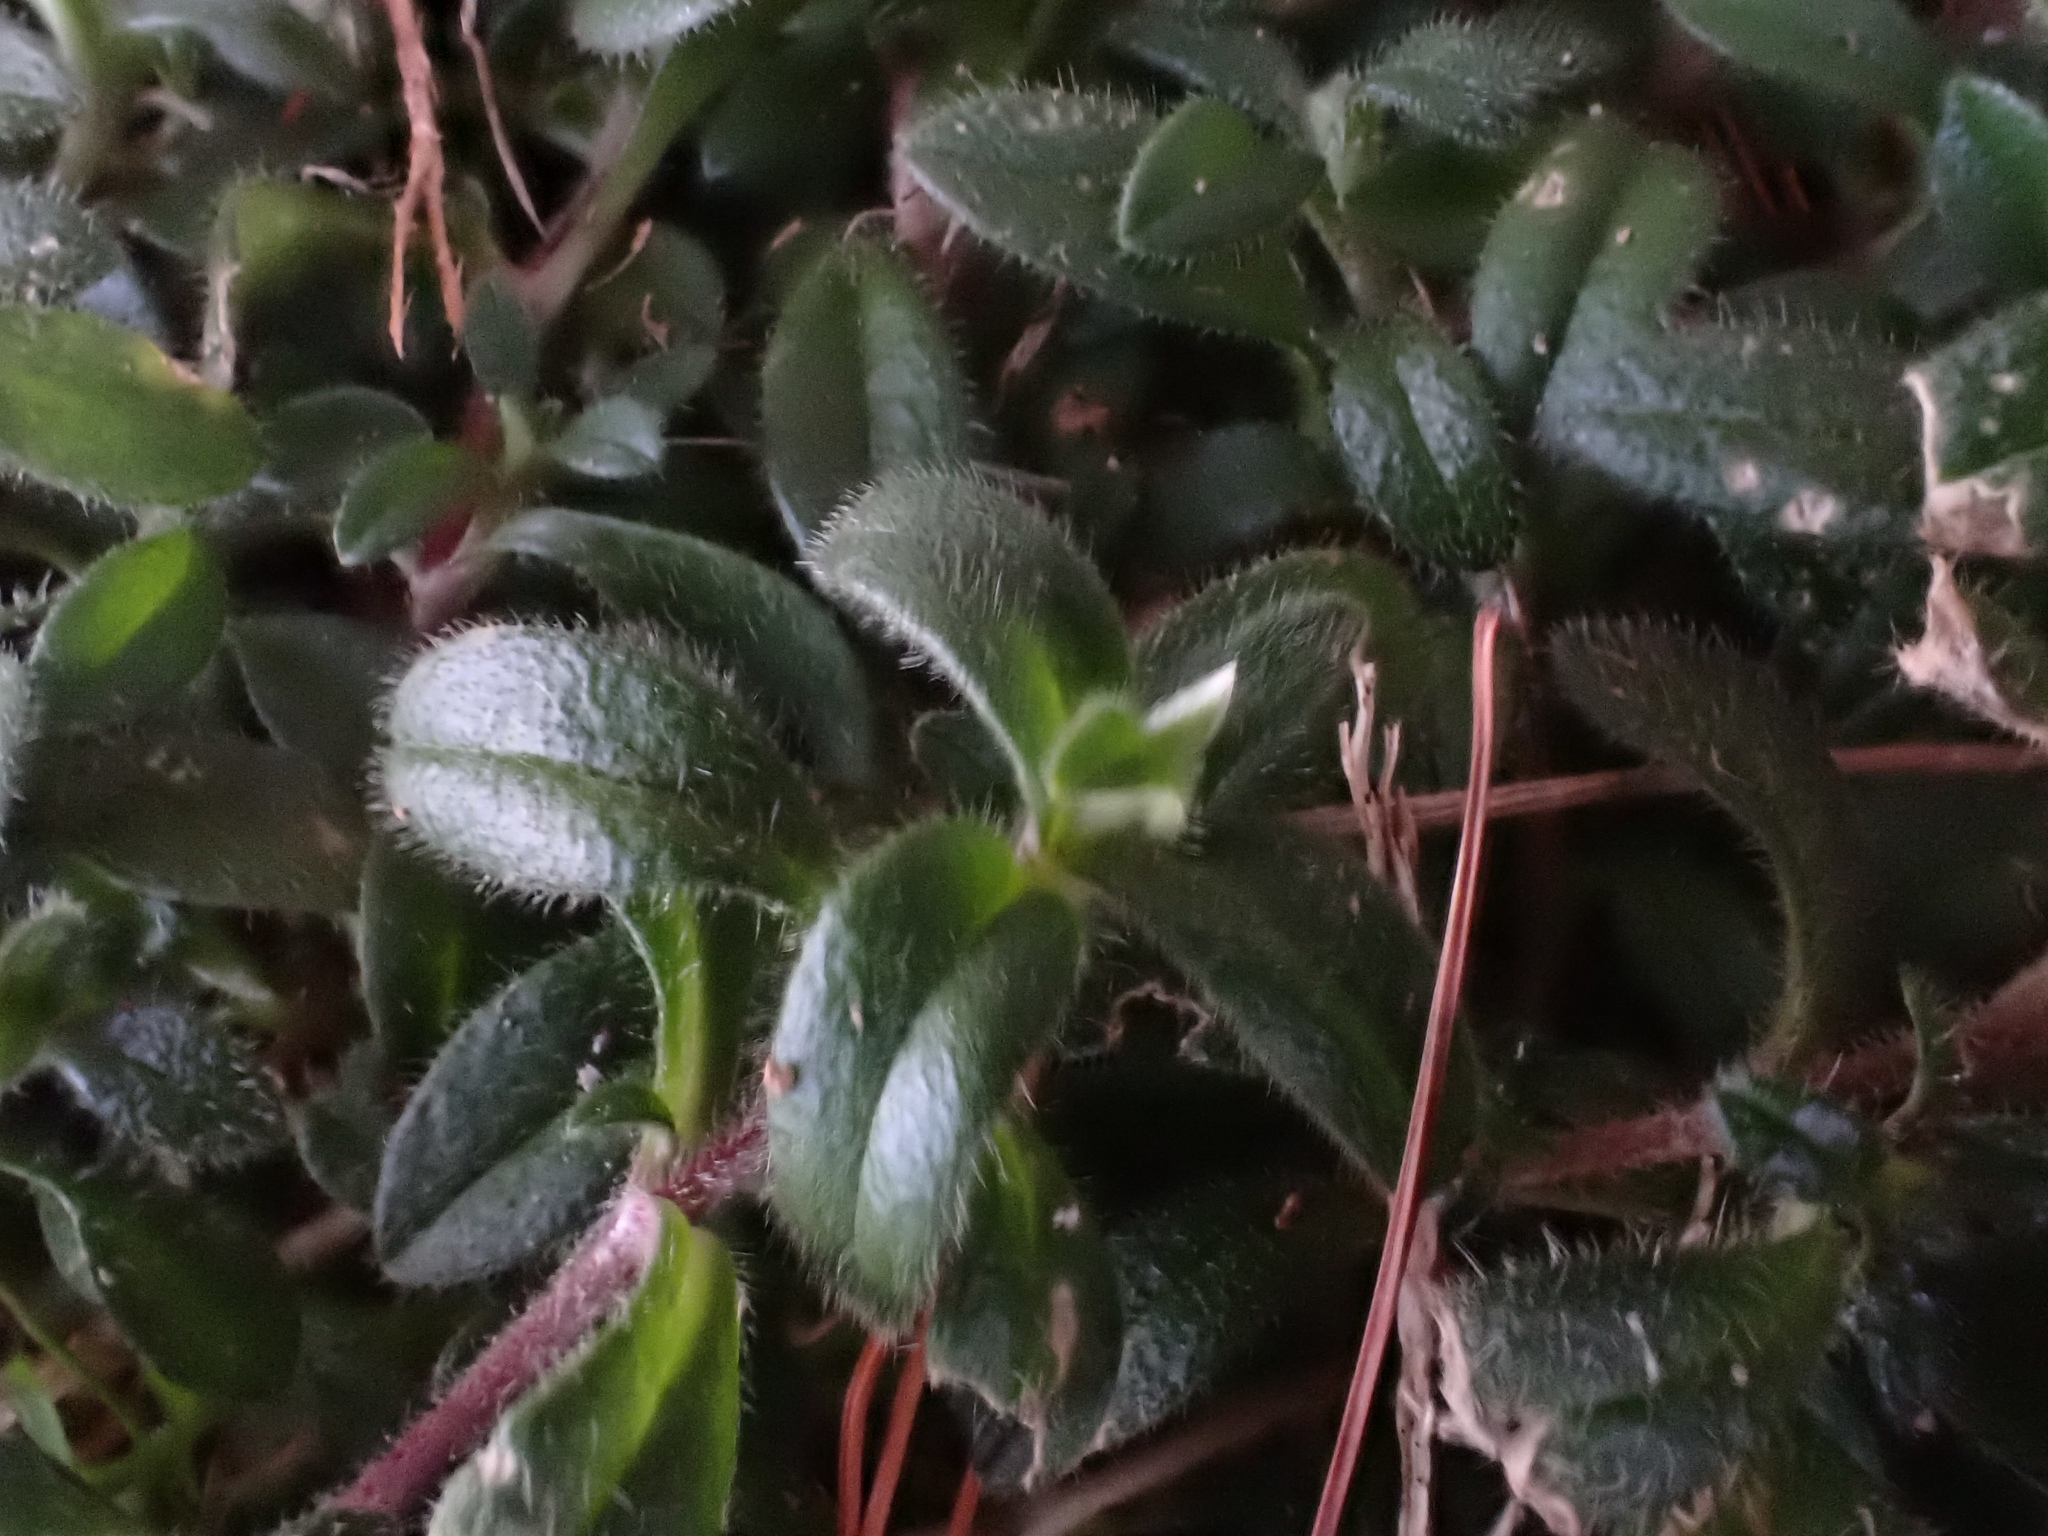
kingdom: Plantae
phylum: Tracheophyta
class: Magnoliopsida
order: Caryophyllales
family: Caryophyllaceae
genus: Cerastium
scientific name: Cerastium fontanum
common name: Common mouse-ear
